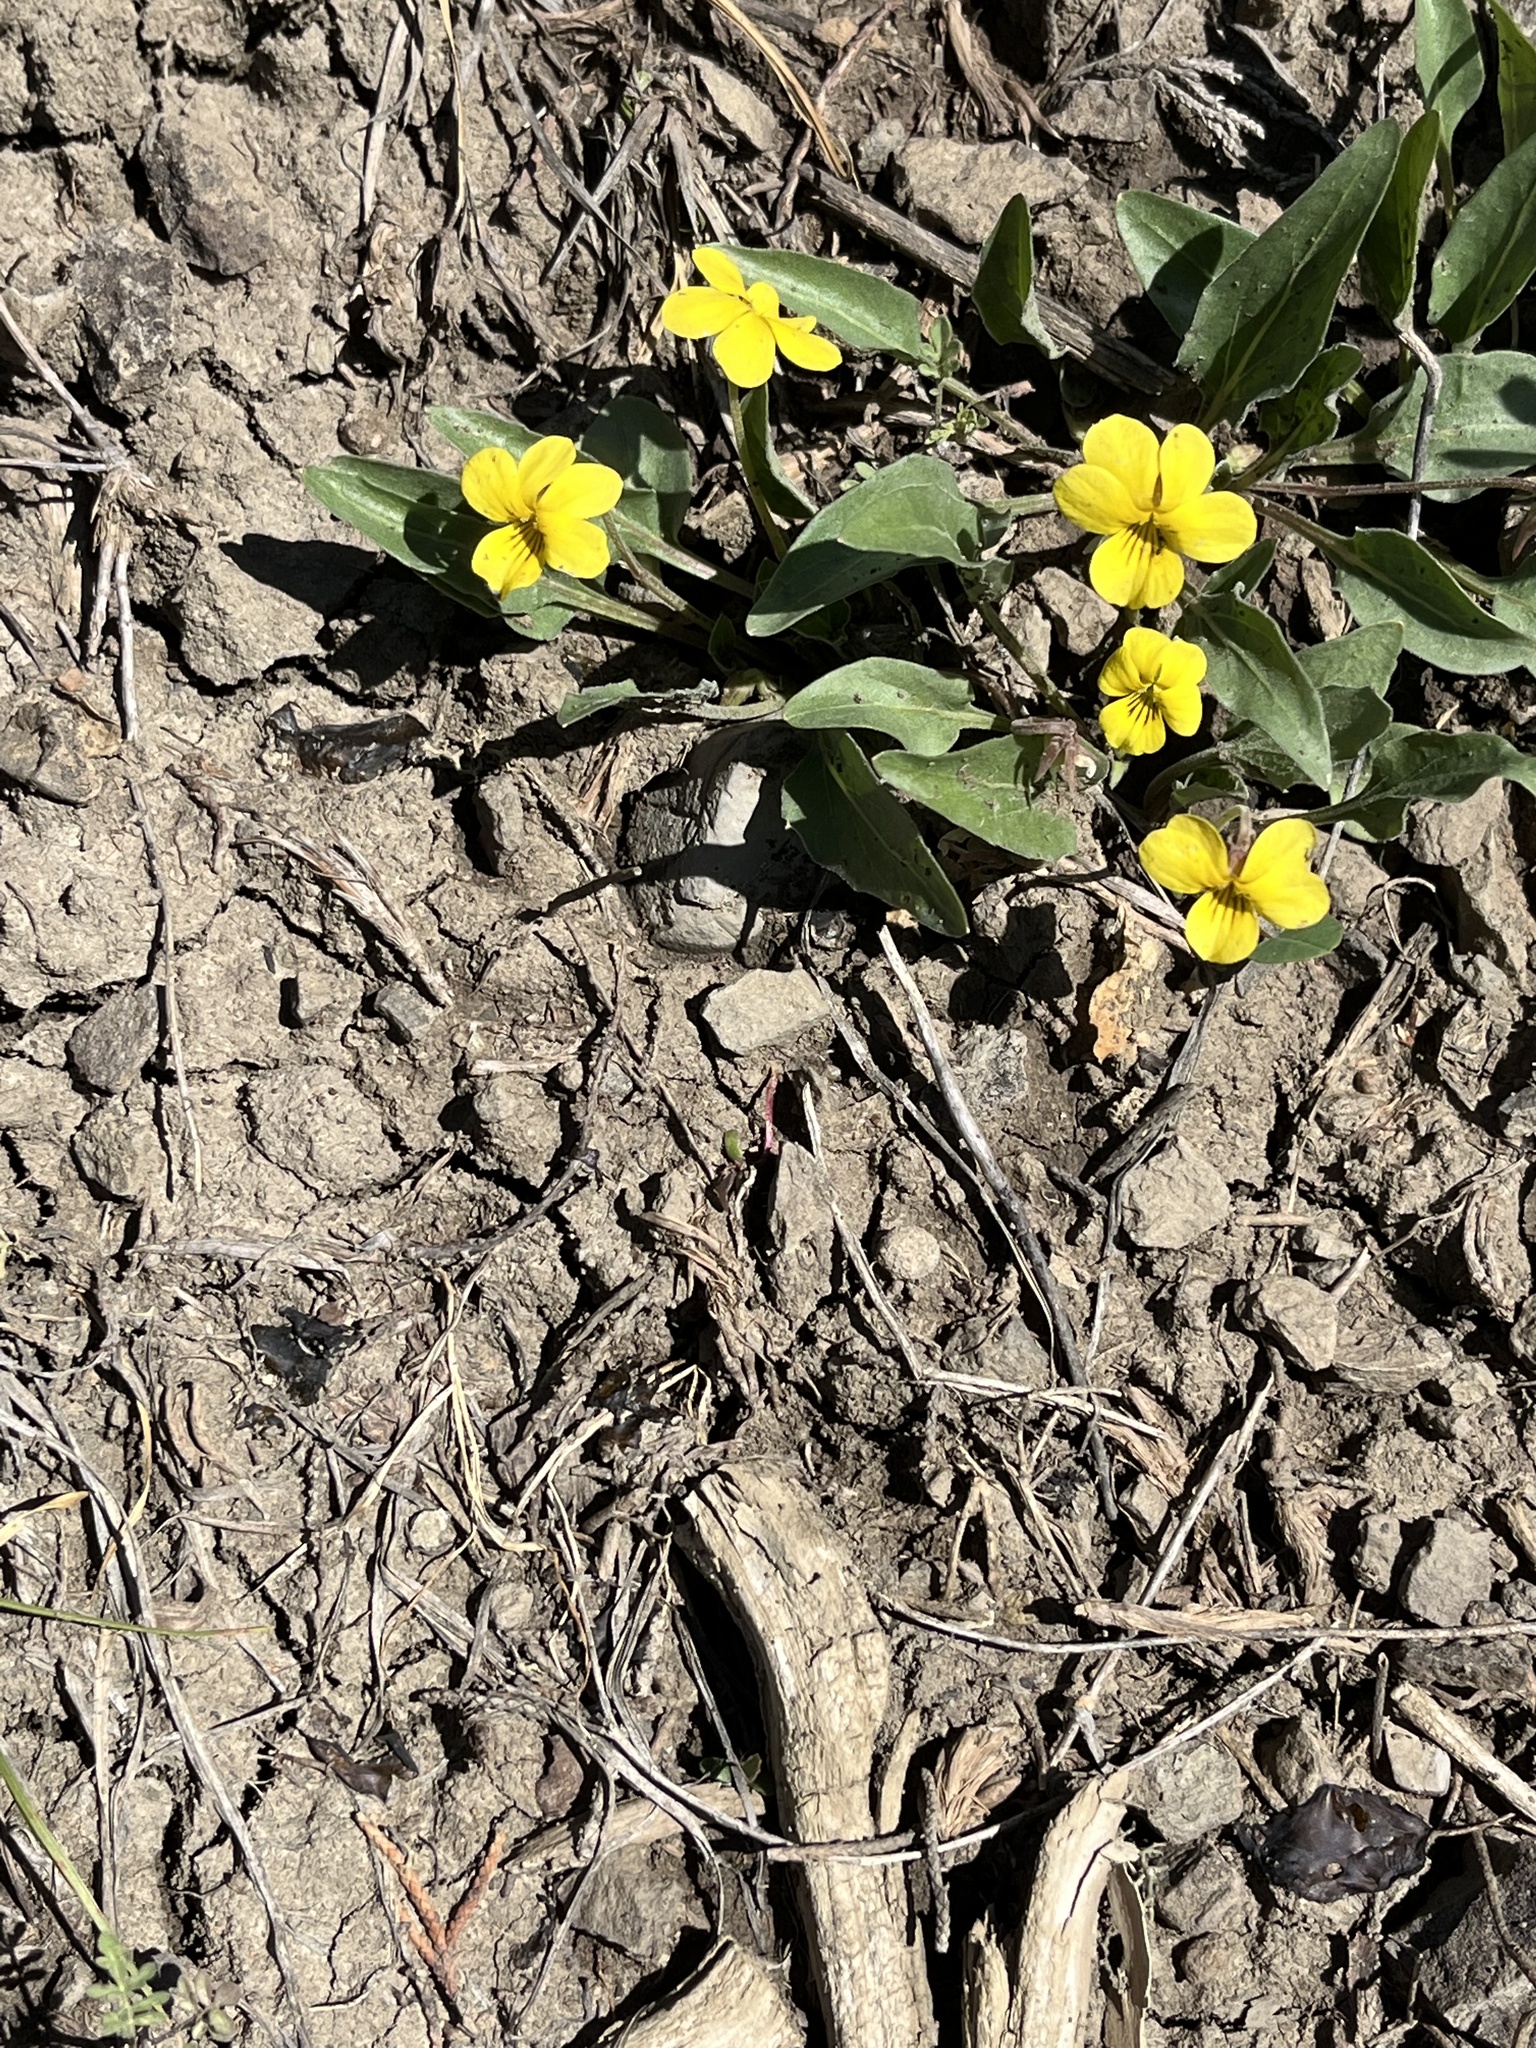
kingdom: Plantae
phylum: Tracheophyta
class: Magnoliopsida
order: Malpighiales
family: Violaceae
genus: Viola
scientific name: Viola nuttallii
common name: Yellow prairie violet
